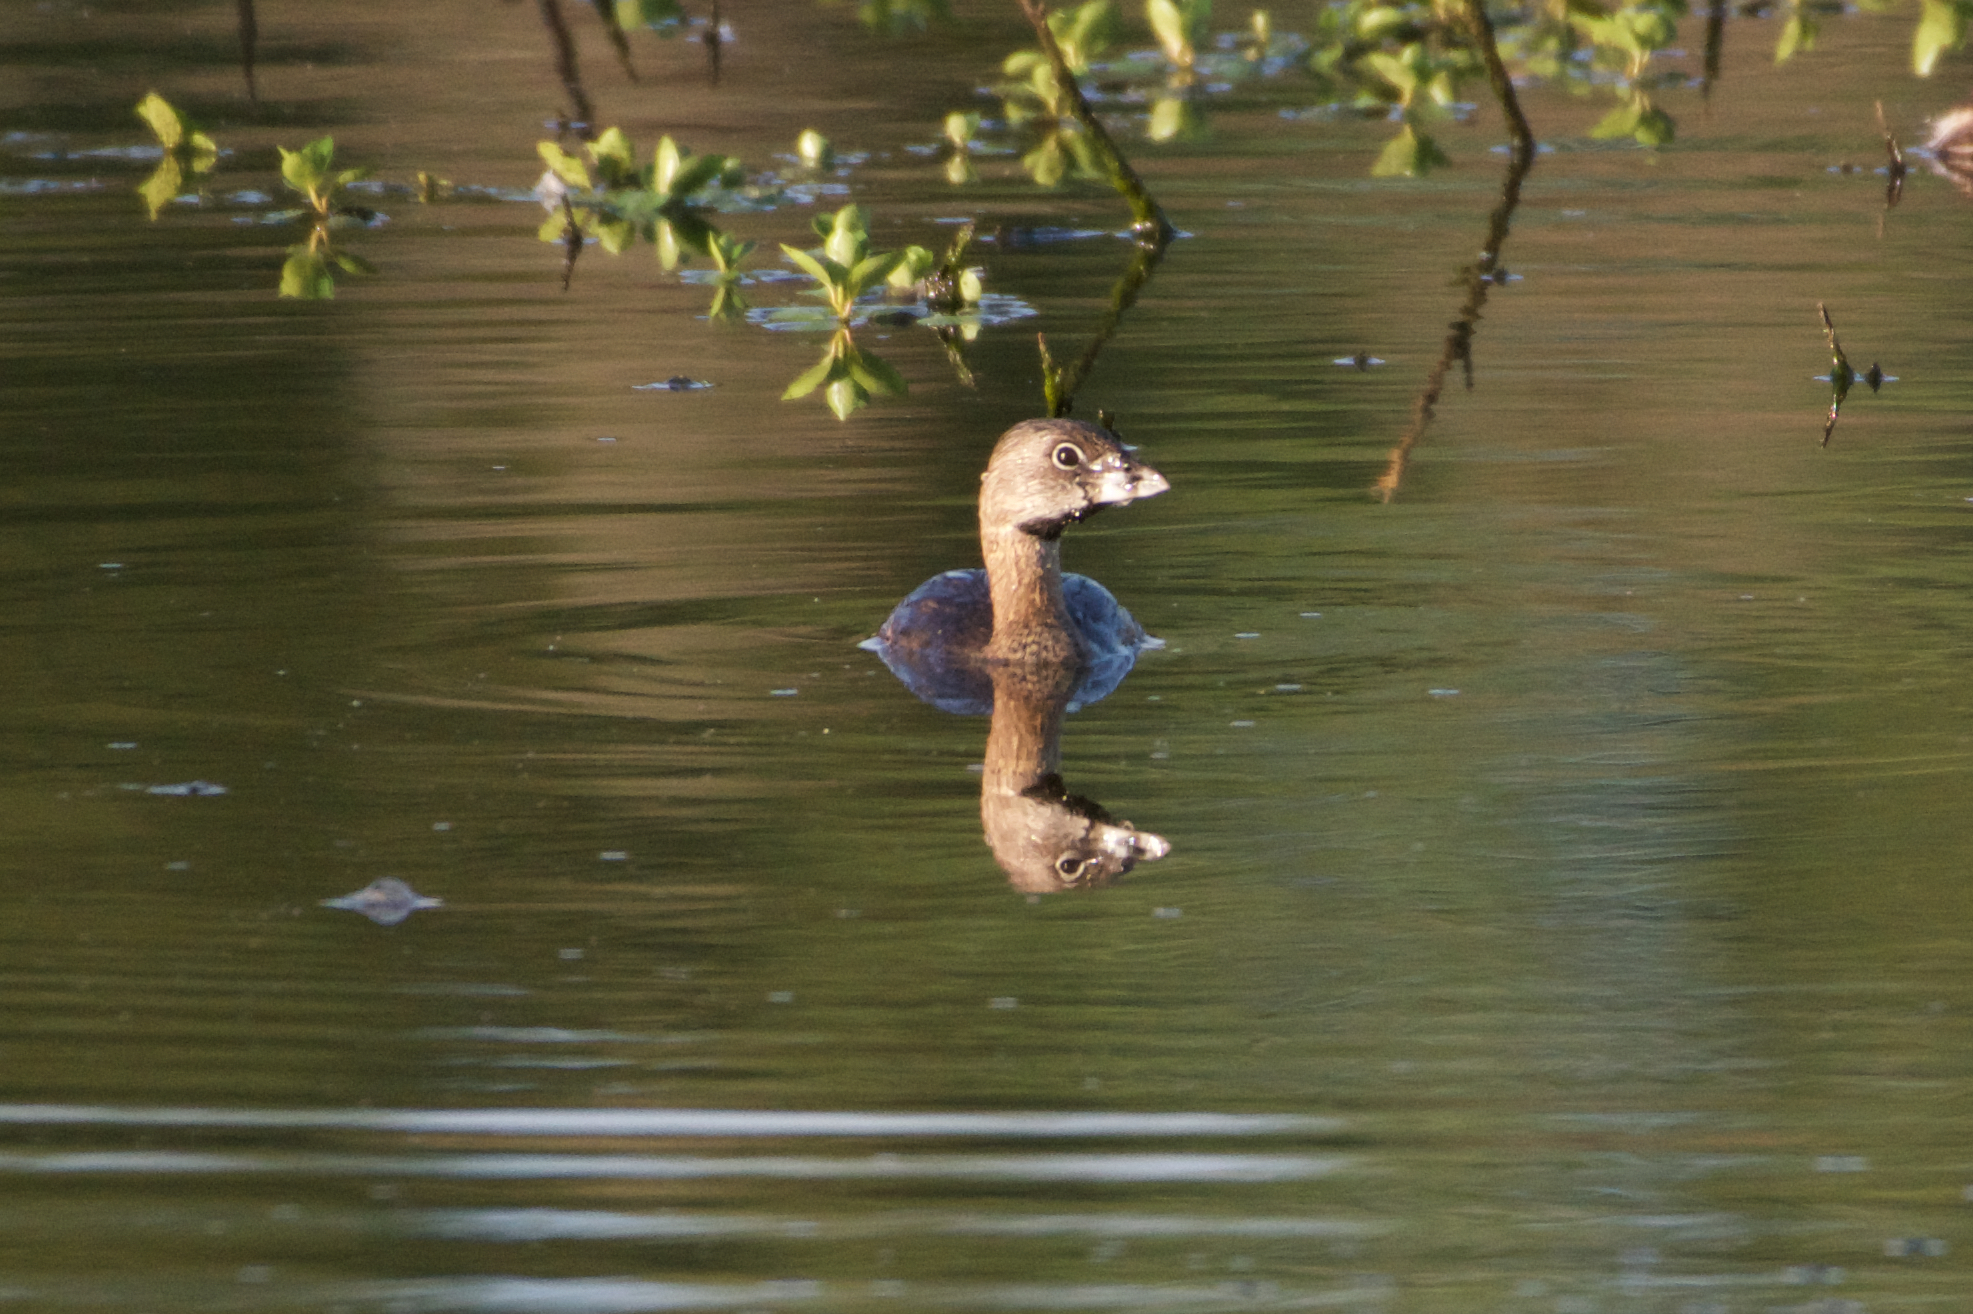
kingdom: Animalia
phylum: Chordata
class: Aves
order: Podicipediformes
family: Podicipedidae
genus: Podilymbus
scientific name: Podilymbus podiceps
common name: Pied-billed grebe
